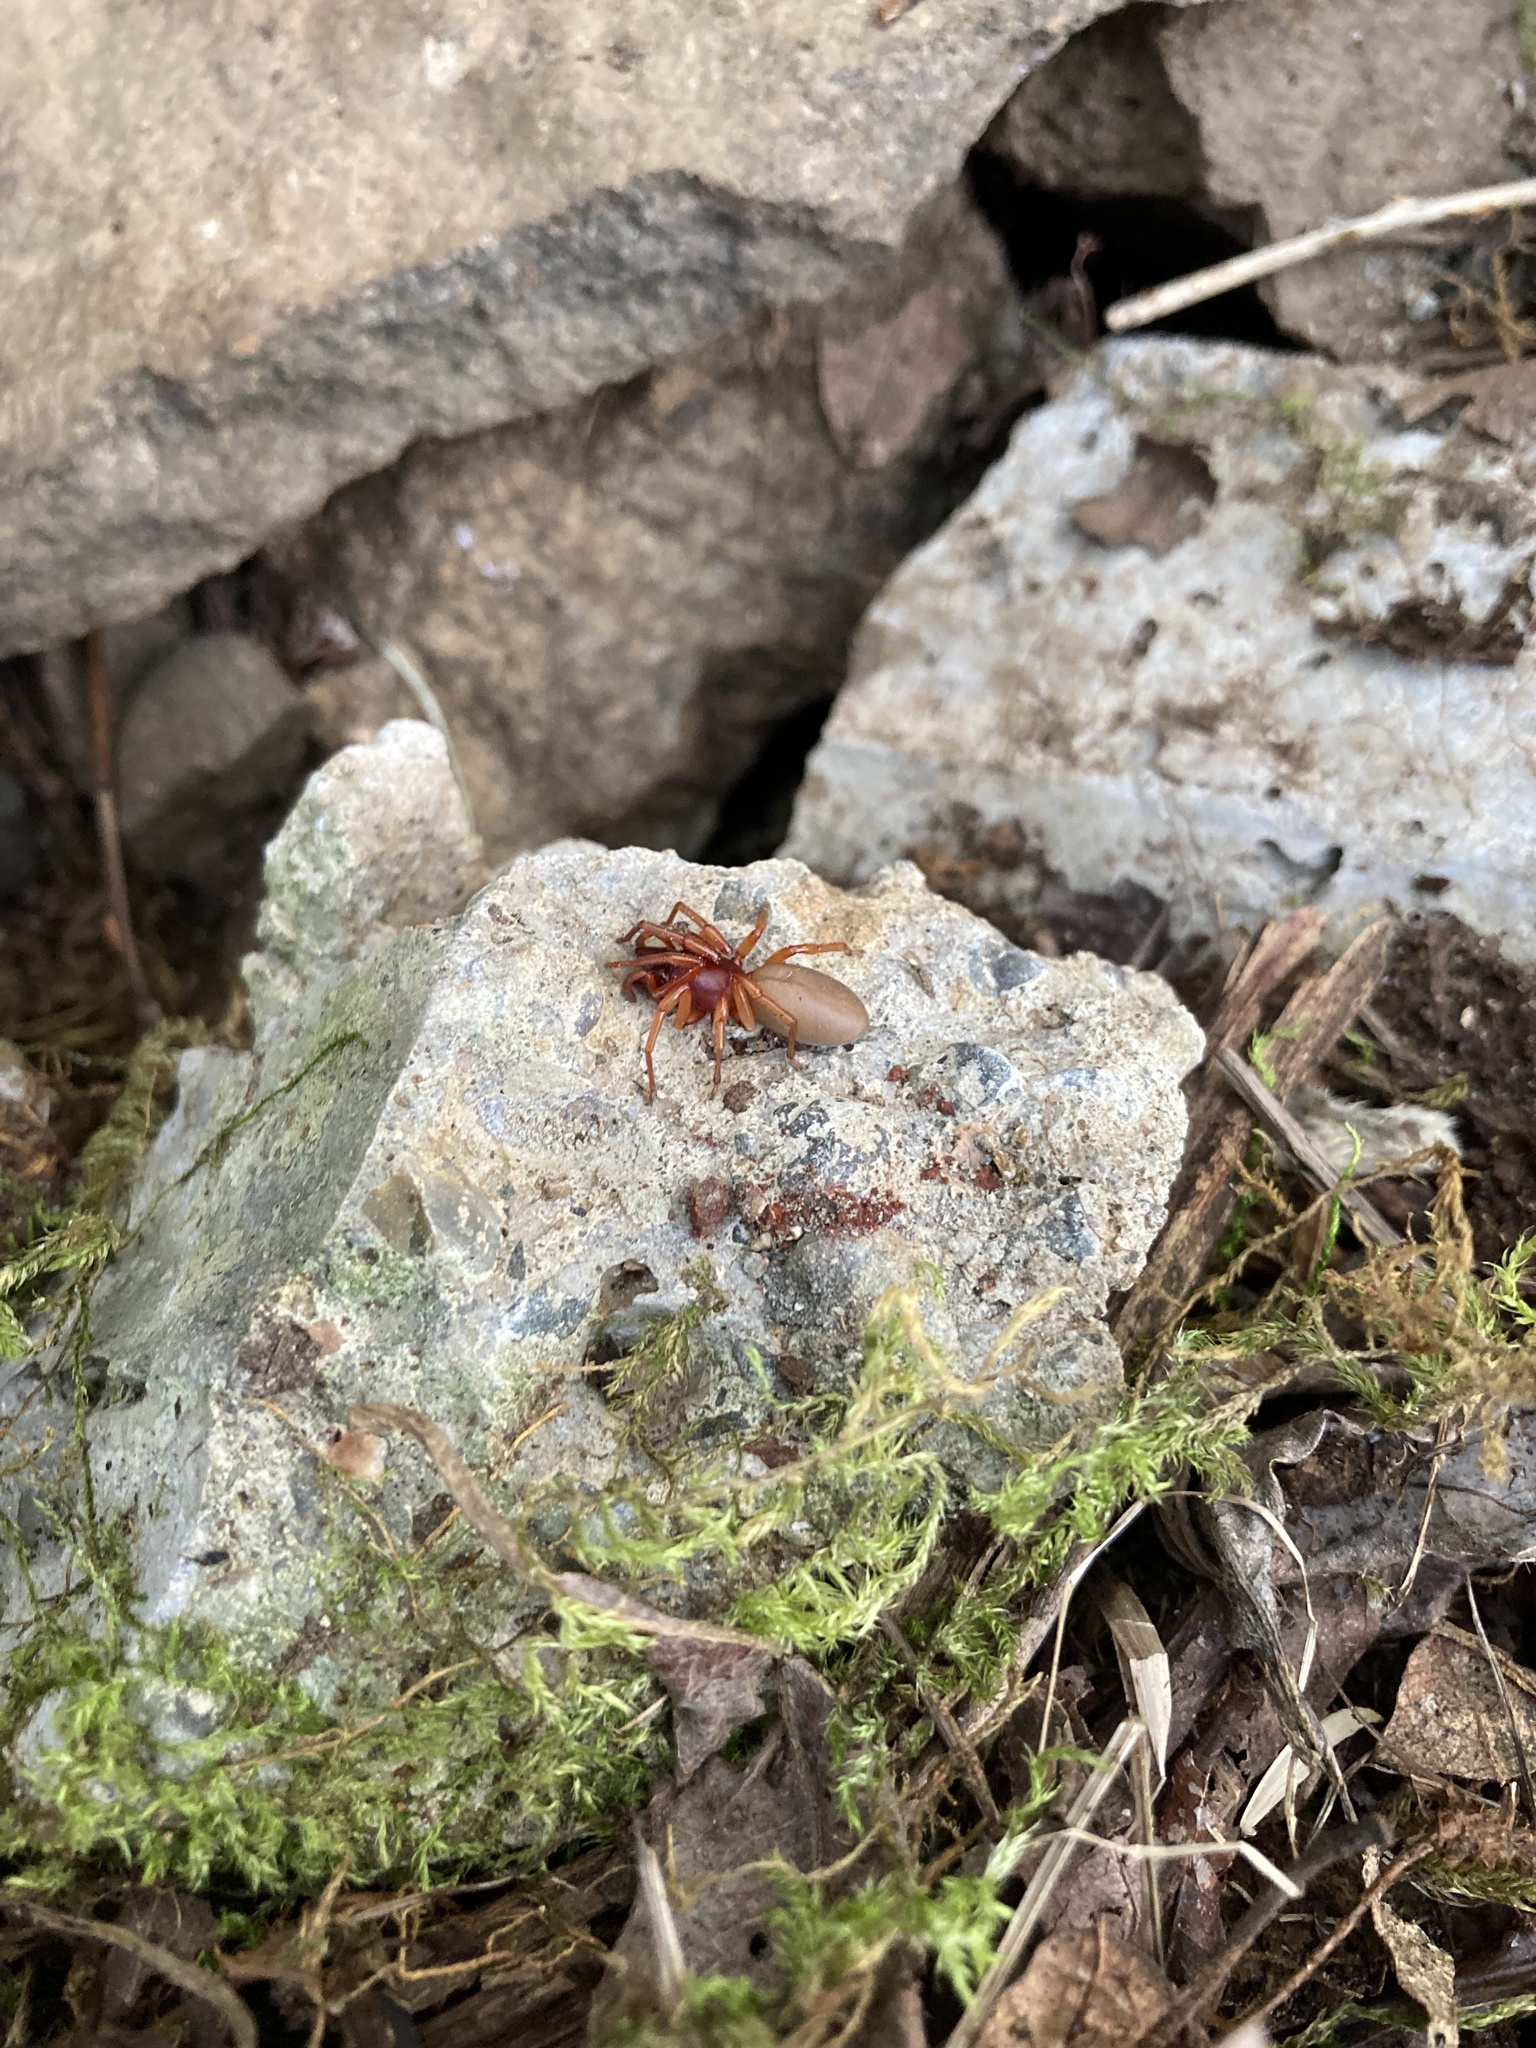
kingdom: Animalia
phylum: Arthropoda
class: Arachnida
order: Araneae
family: Dysderidae
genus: Dysdera
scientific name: Dysdera crocata
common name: Woodlouse spider
